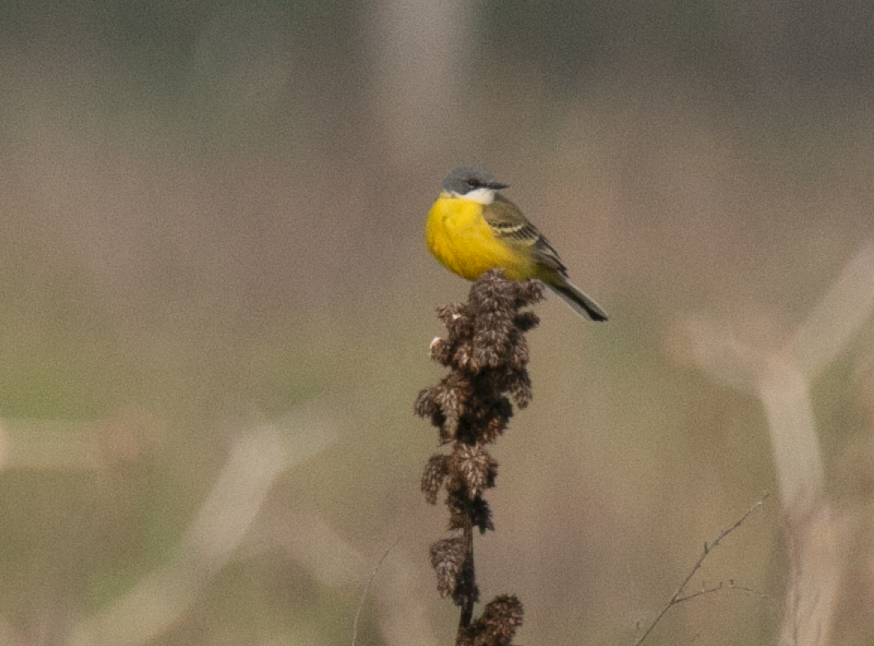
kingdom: Animalia
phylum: Chordata
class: Aves
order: Passeriformes
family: Motacillidae
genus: Motacilla
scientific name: Motacilla flava
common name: Western yellow wagtail
